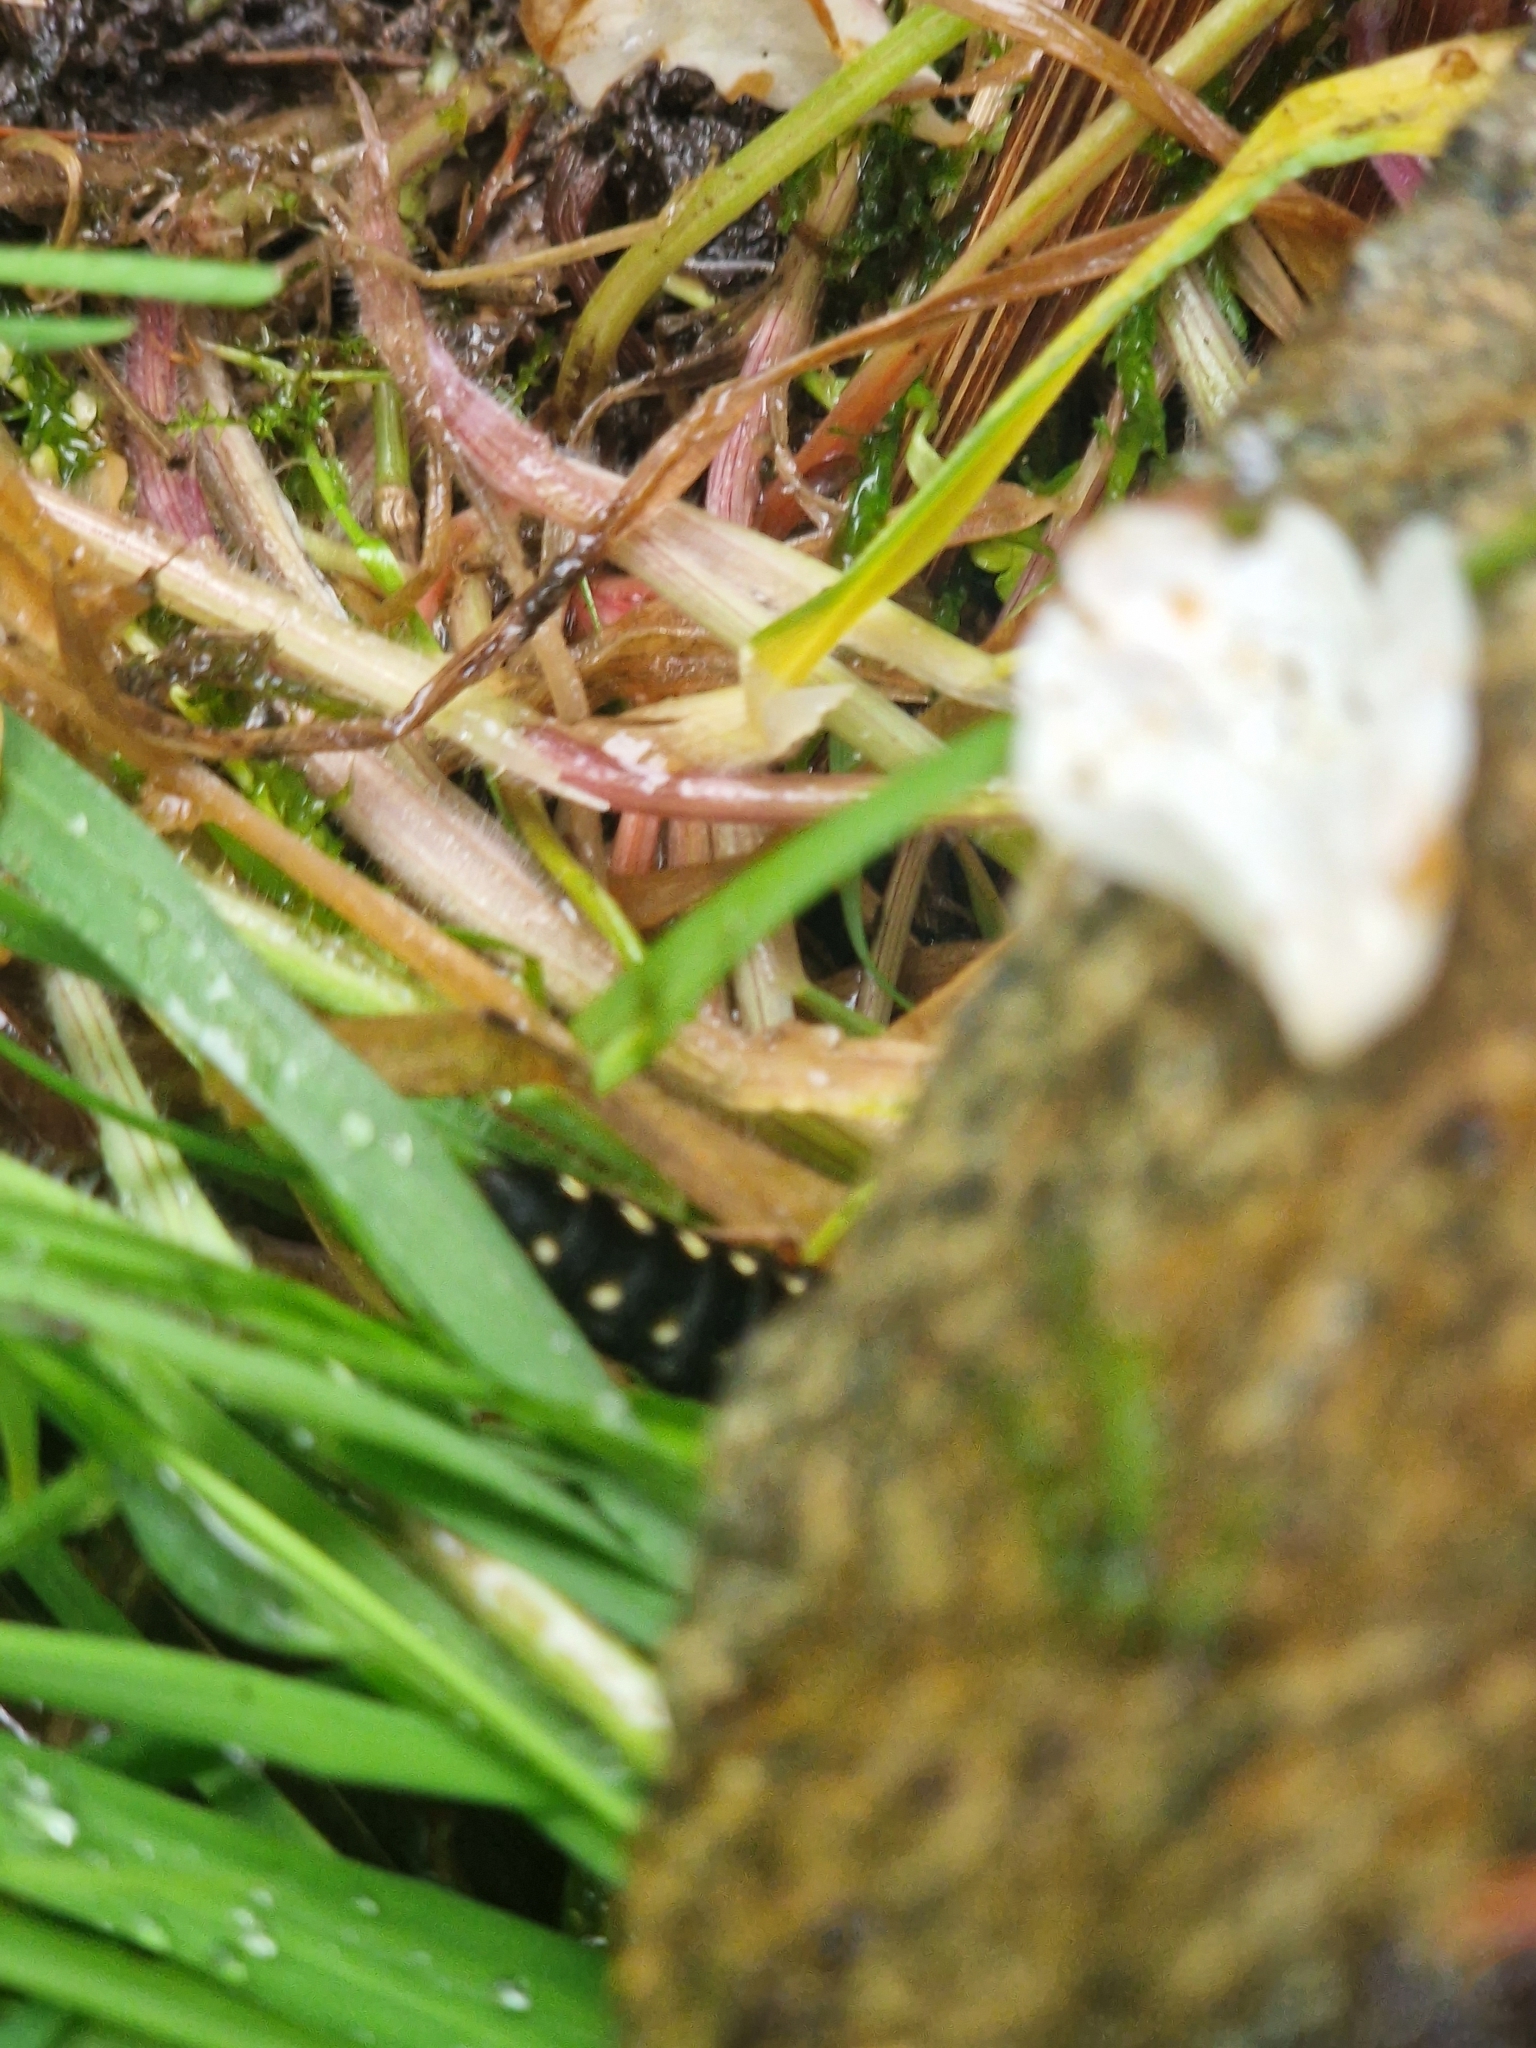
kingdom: Animalia
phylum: Arthropoda
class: Insecta
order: Coleoptera
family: Staphylinidae
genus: Staphylinus
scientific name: Staphylinus
